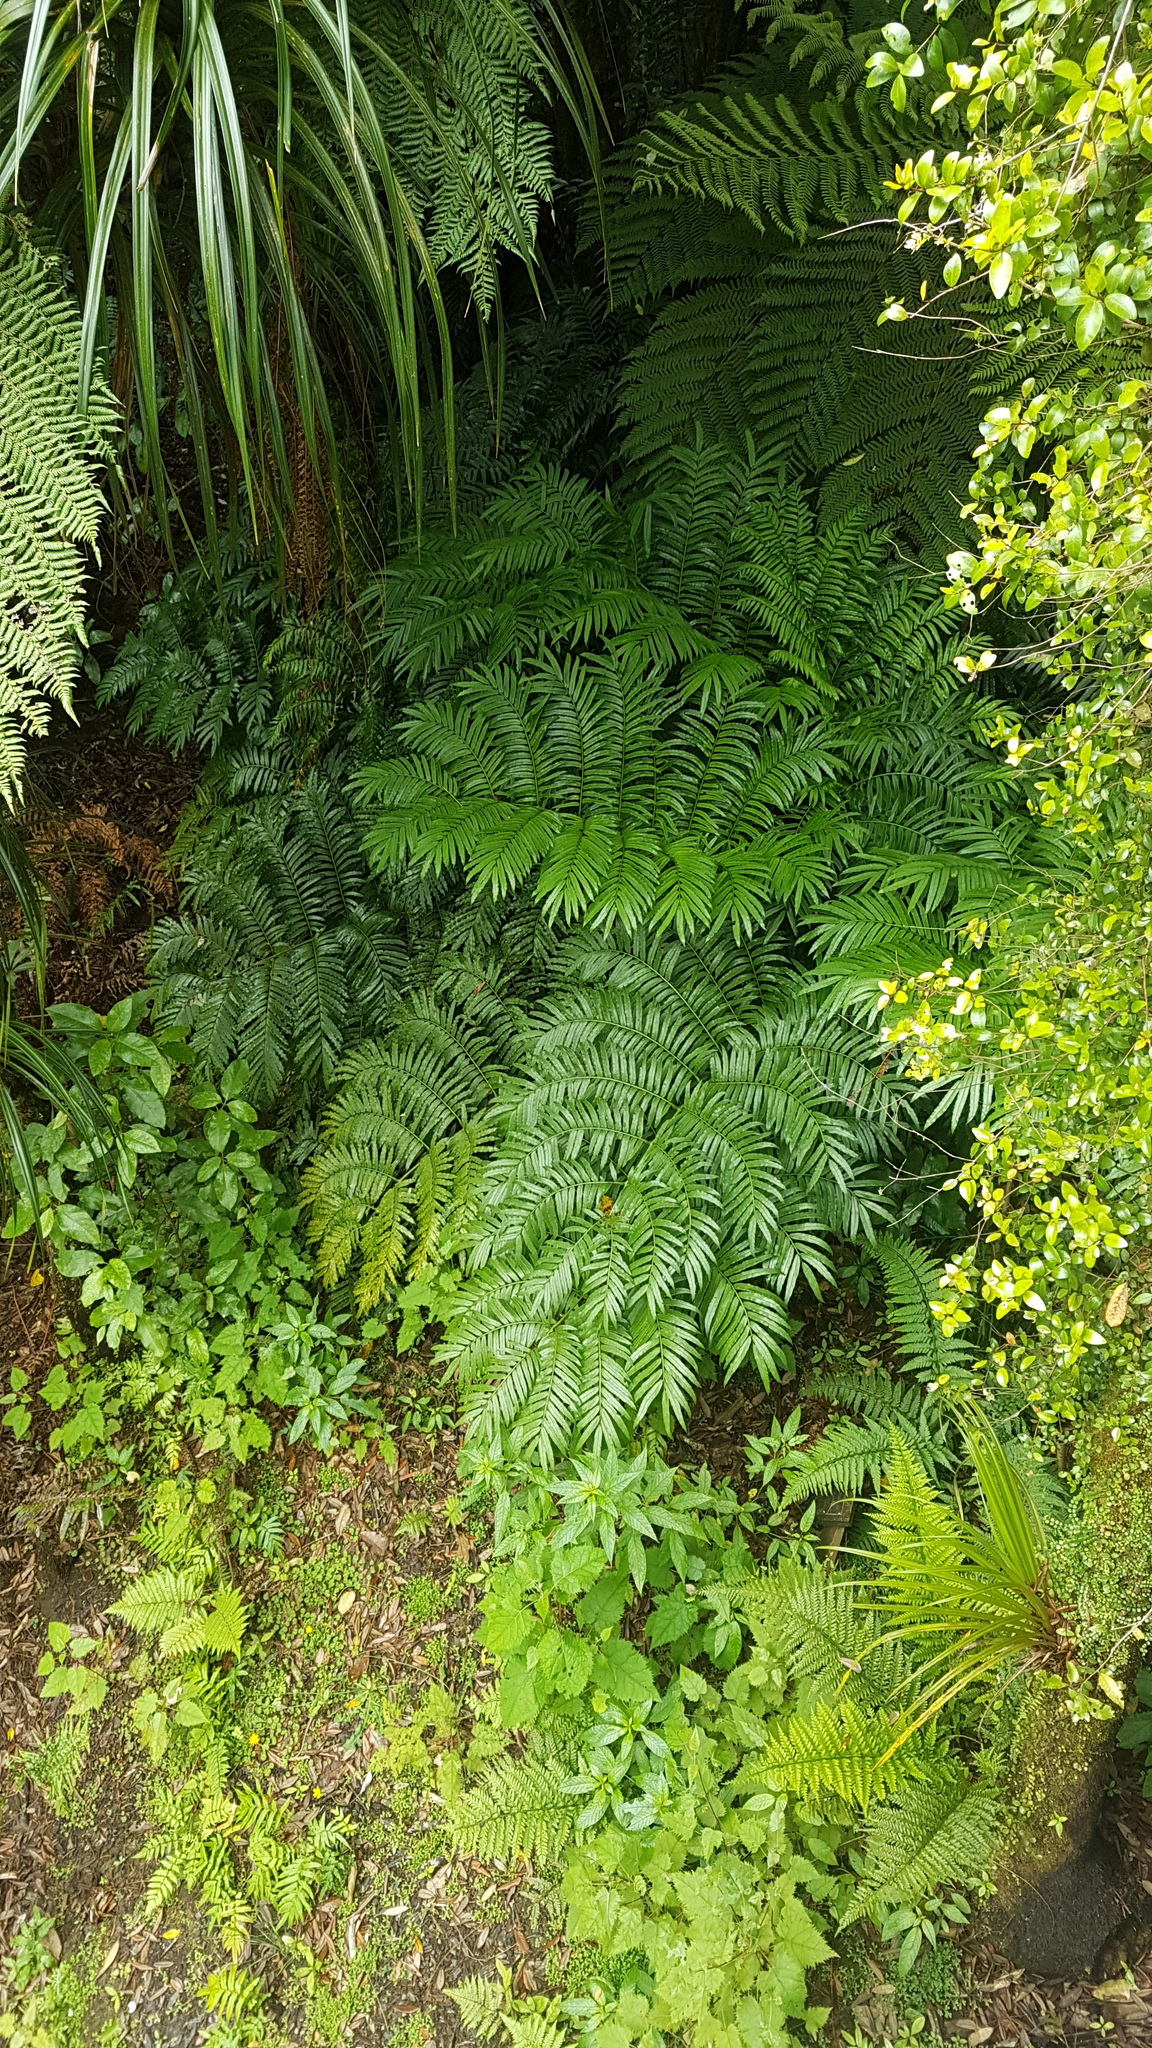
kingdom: Plantae
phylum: Tracheophyta
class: Polypodiopsida
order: Marattiales
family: Marattiaceae
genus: Ptisana
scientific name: Ptisana salicina
